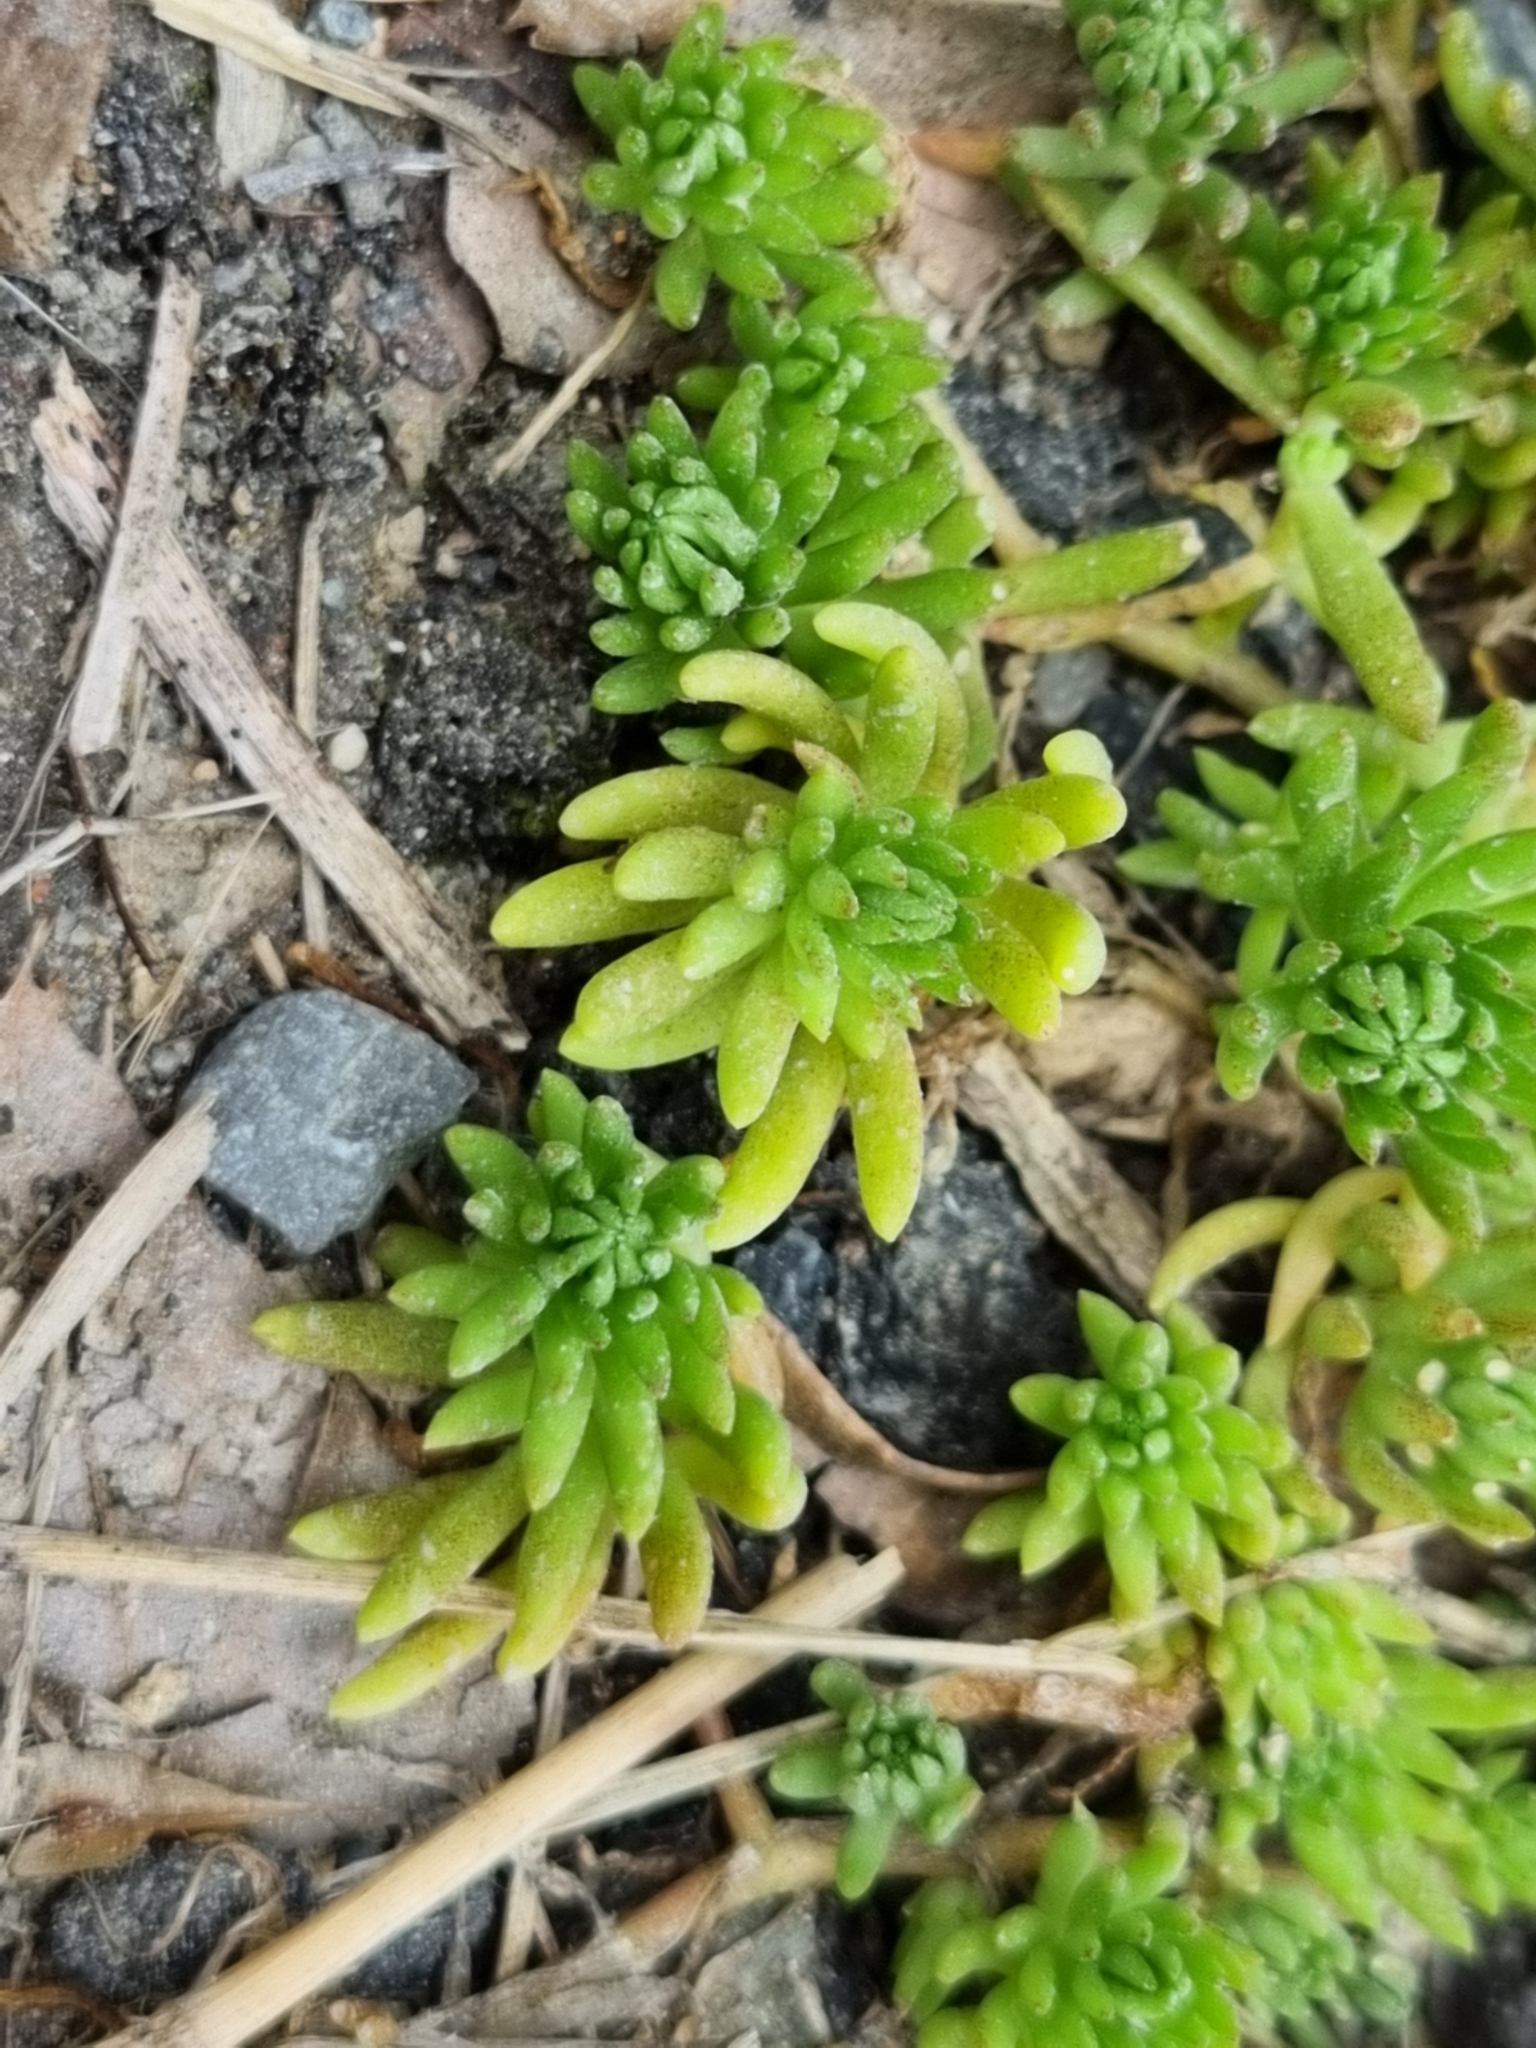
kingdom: Plantae
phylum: Tracheophyta
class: Magnoliopsida
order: Saxifragales
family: Crassulaceae
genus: Sedum
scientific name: Sedum mexicanum
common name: Mexican stonecrop
